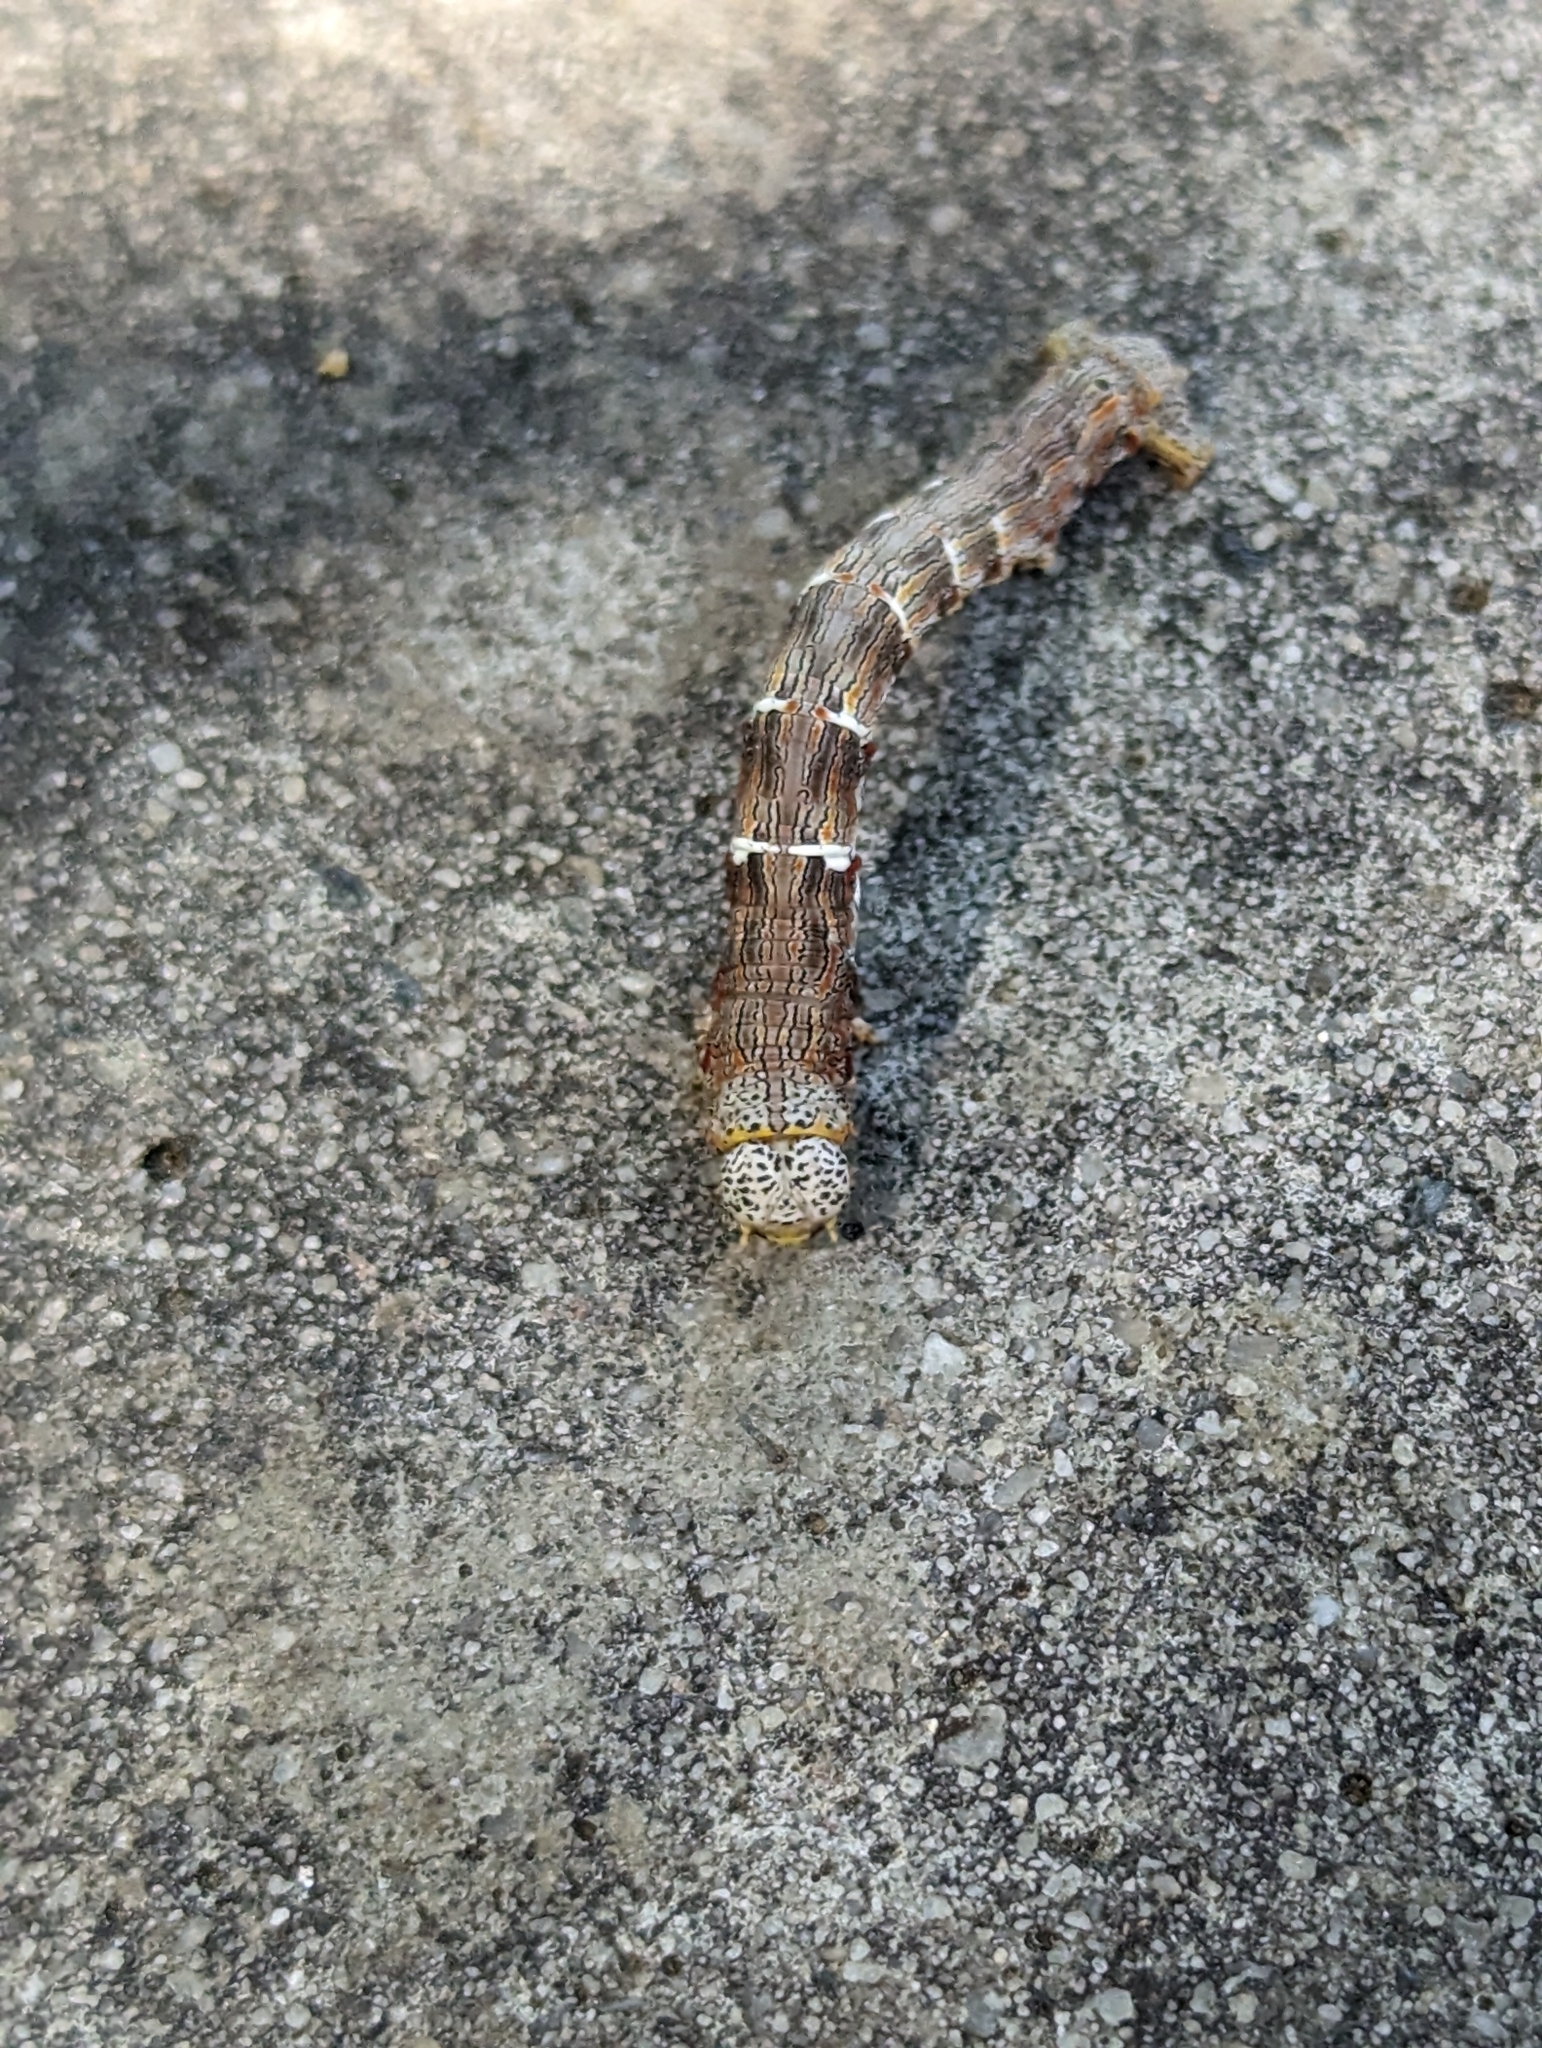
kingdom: Animalia
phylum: Arthropoda
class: Insecta
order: Lepidoptera
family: Geometridae
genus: Lycia
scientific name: Lycia ypsilon
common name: Wooly gray
